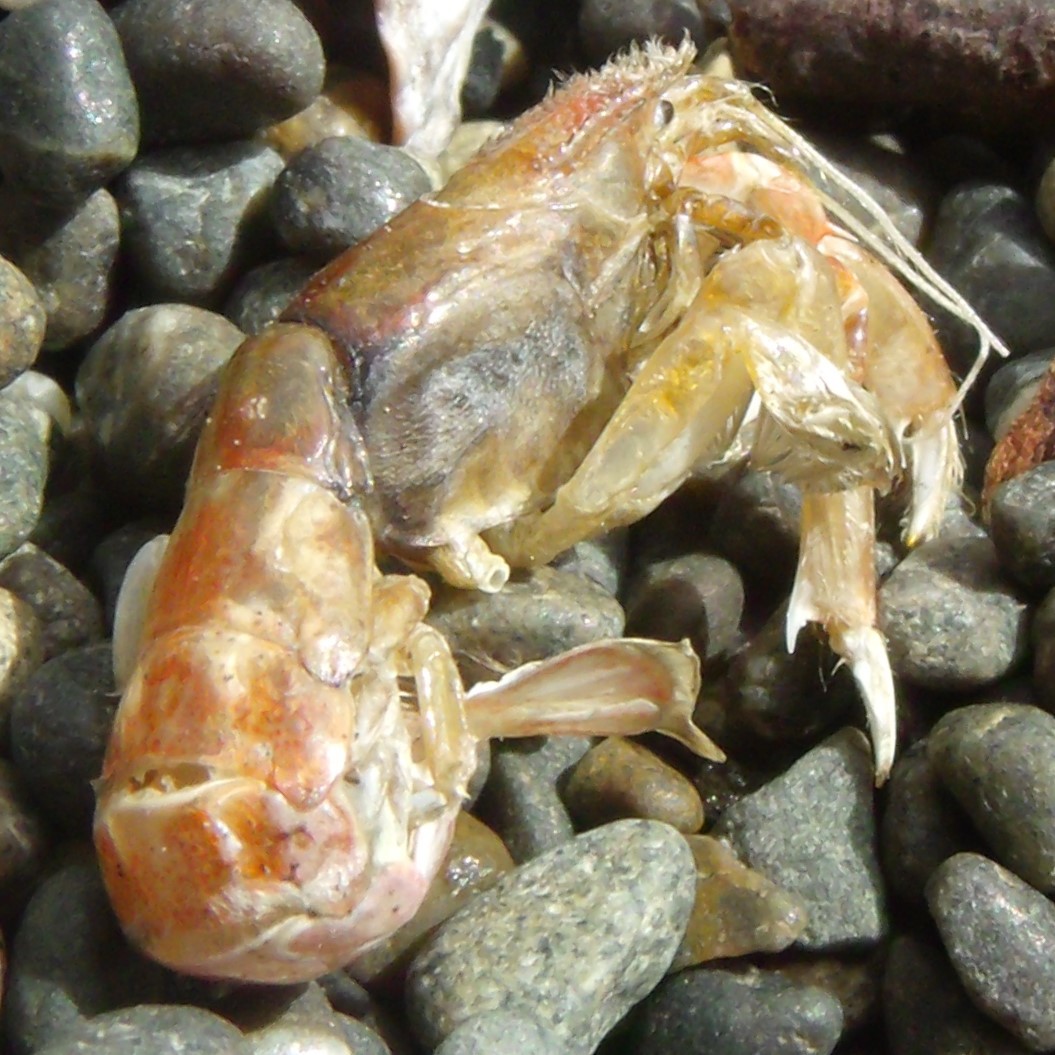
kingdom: Animalia
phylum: Arthropoda
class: Malacostraca
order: Decapoda
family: Upogebiidae
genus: Upogebia
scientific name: Upogebia hirtifrons
